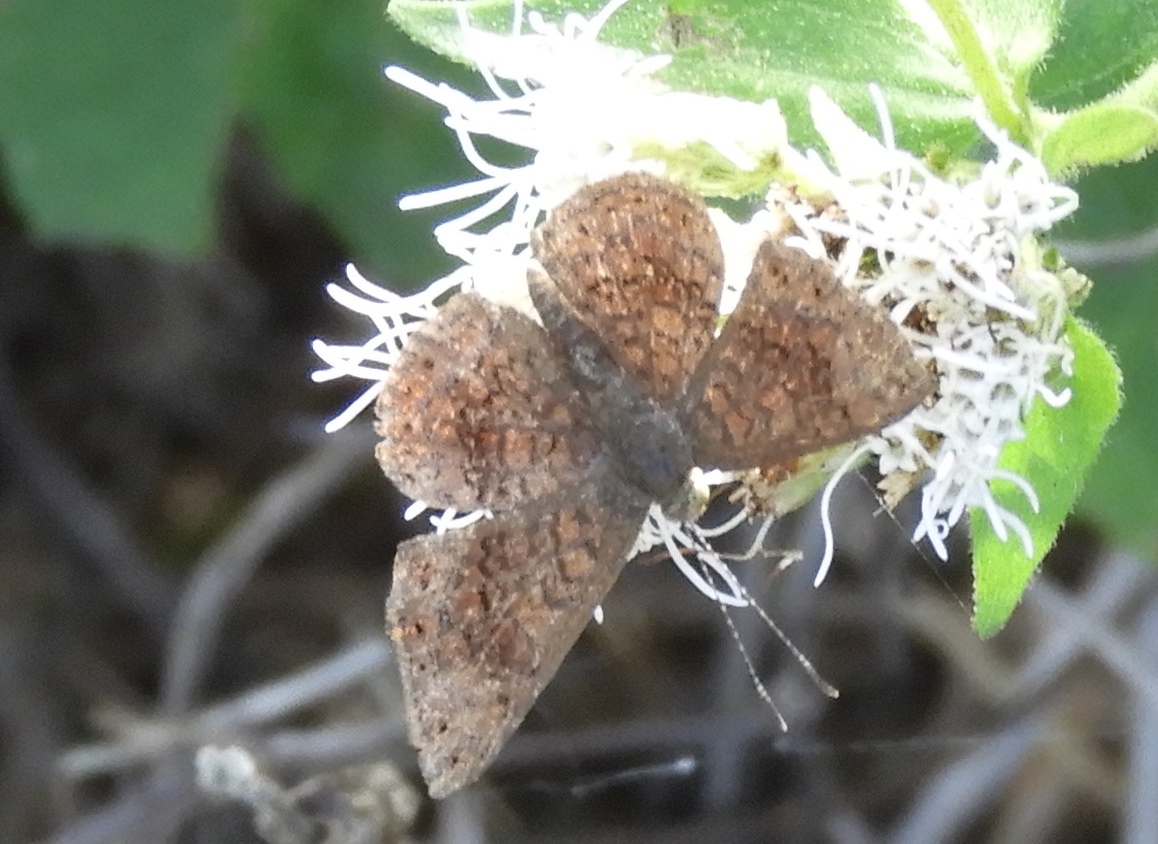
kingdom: Animalia
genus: Calephelis
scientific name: Calephelis
